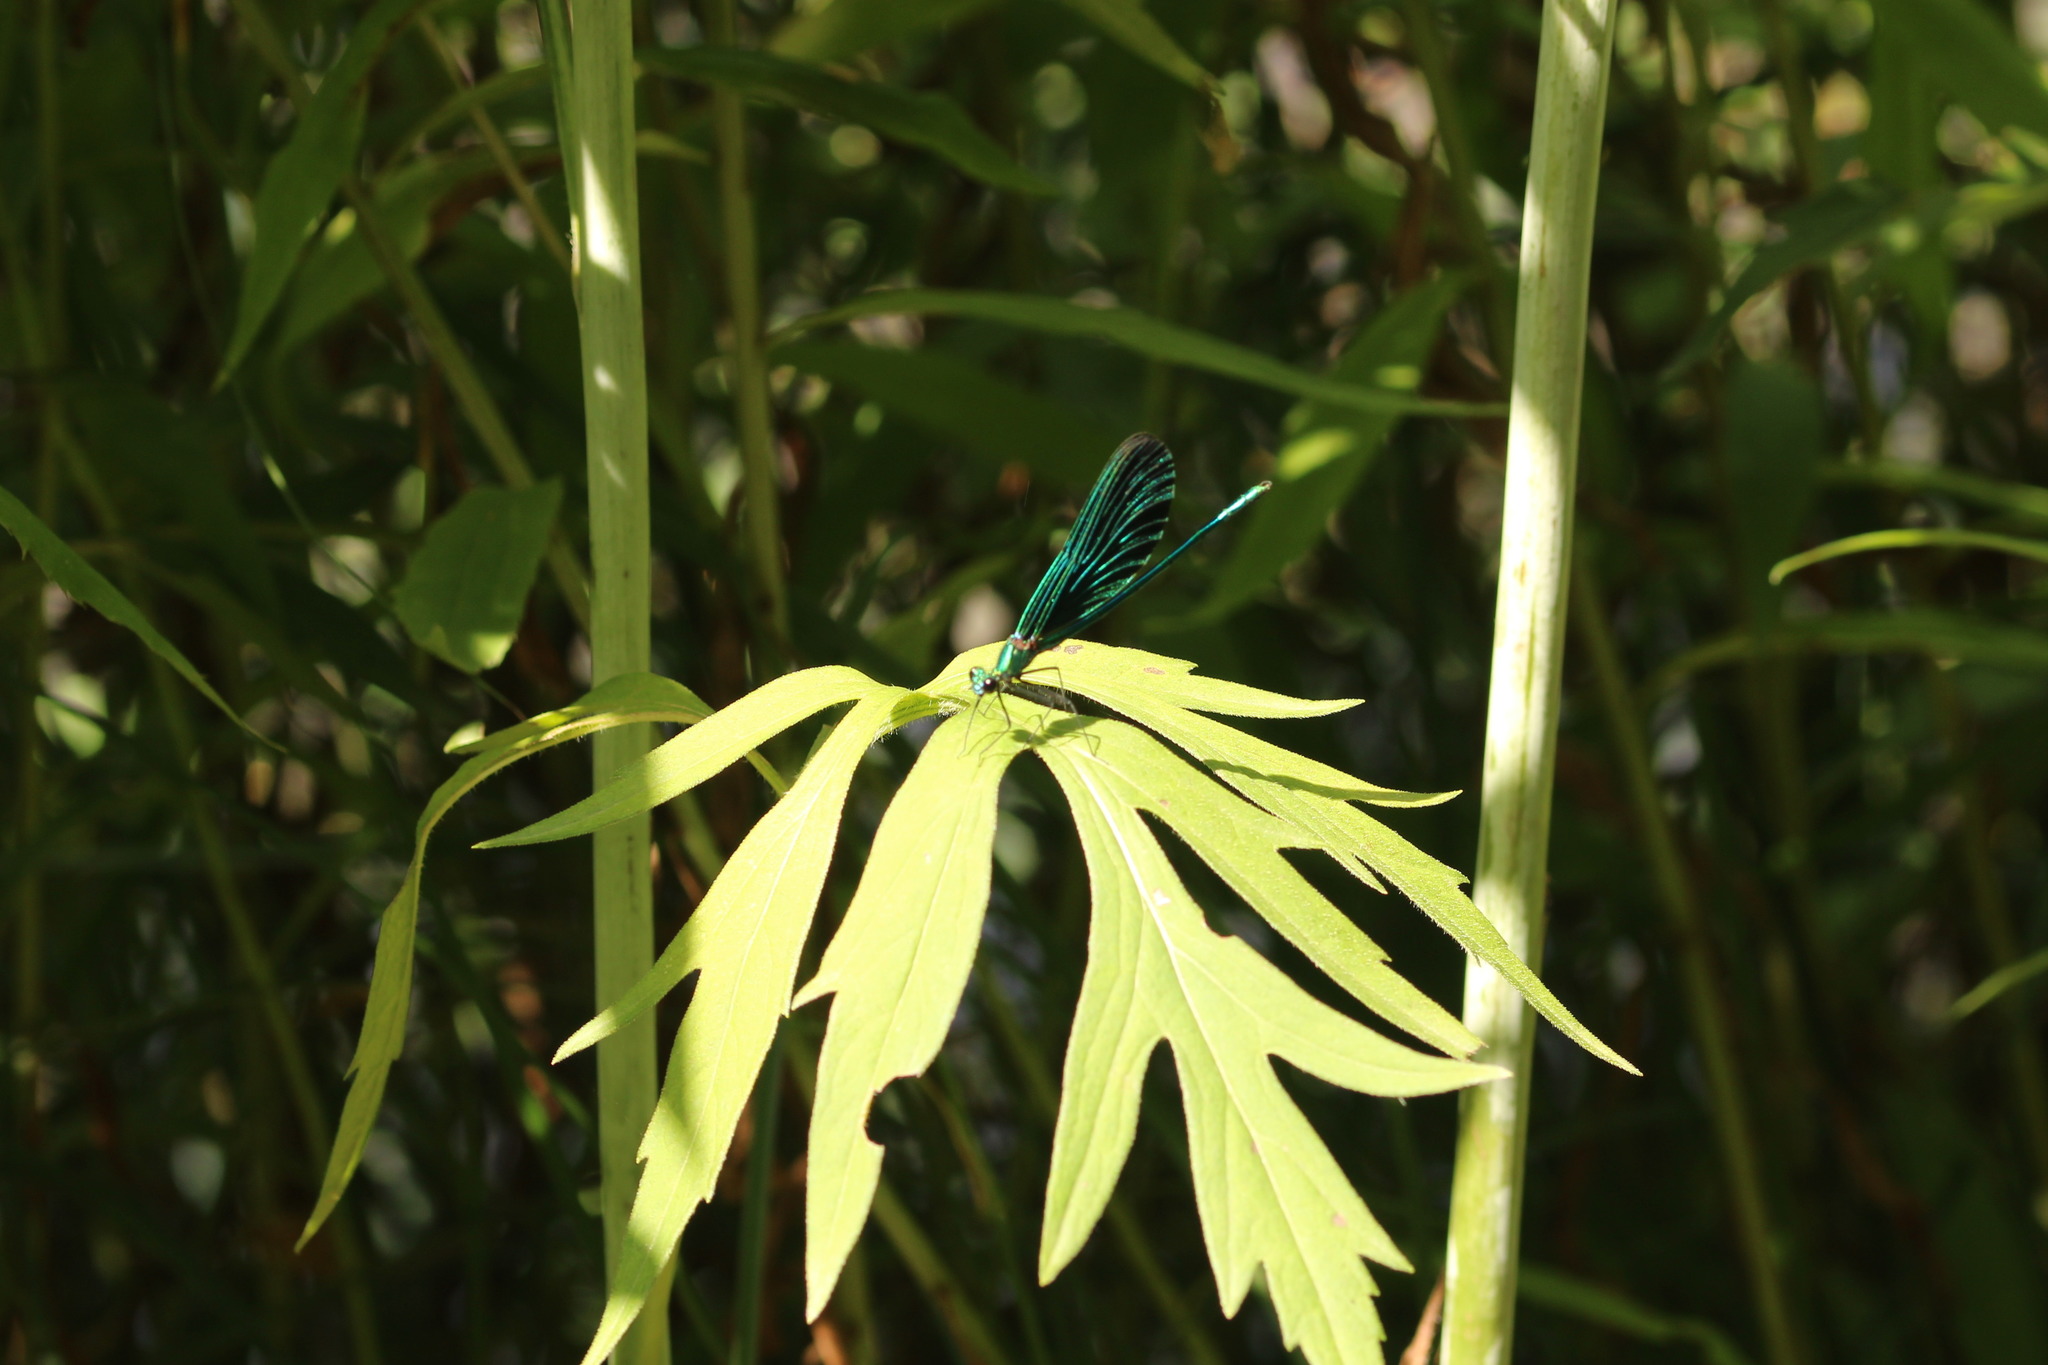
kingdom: Animalia
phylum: Arthropoda
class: Insecta
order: Odonata
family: Calopterygidae
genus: Calopteryx
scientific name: Calopteryx virgo
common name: Beautiful demoiselle
